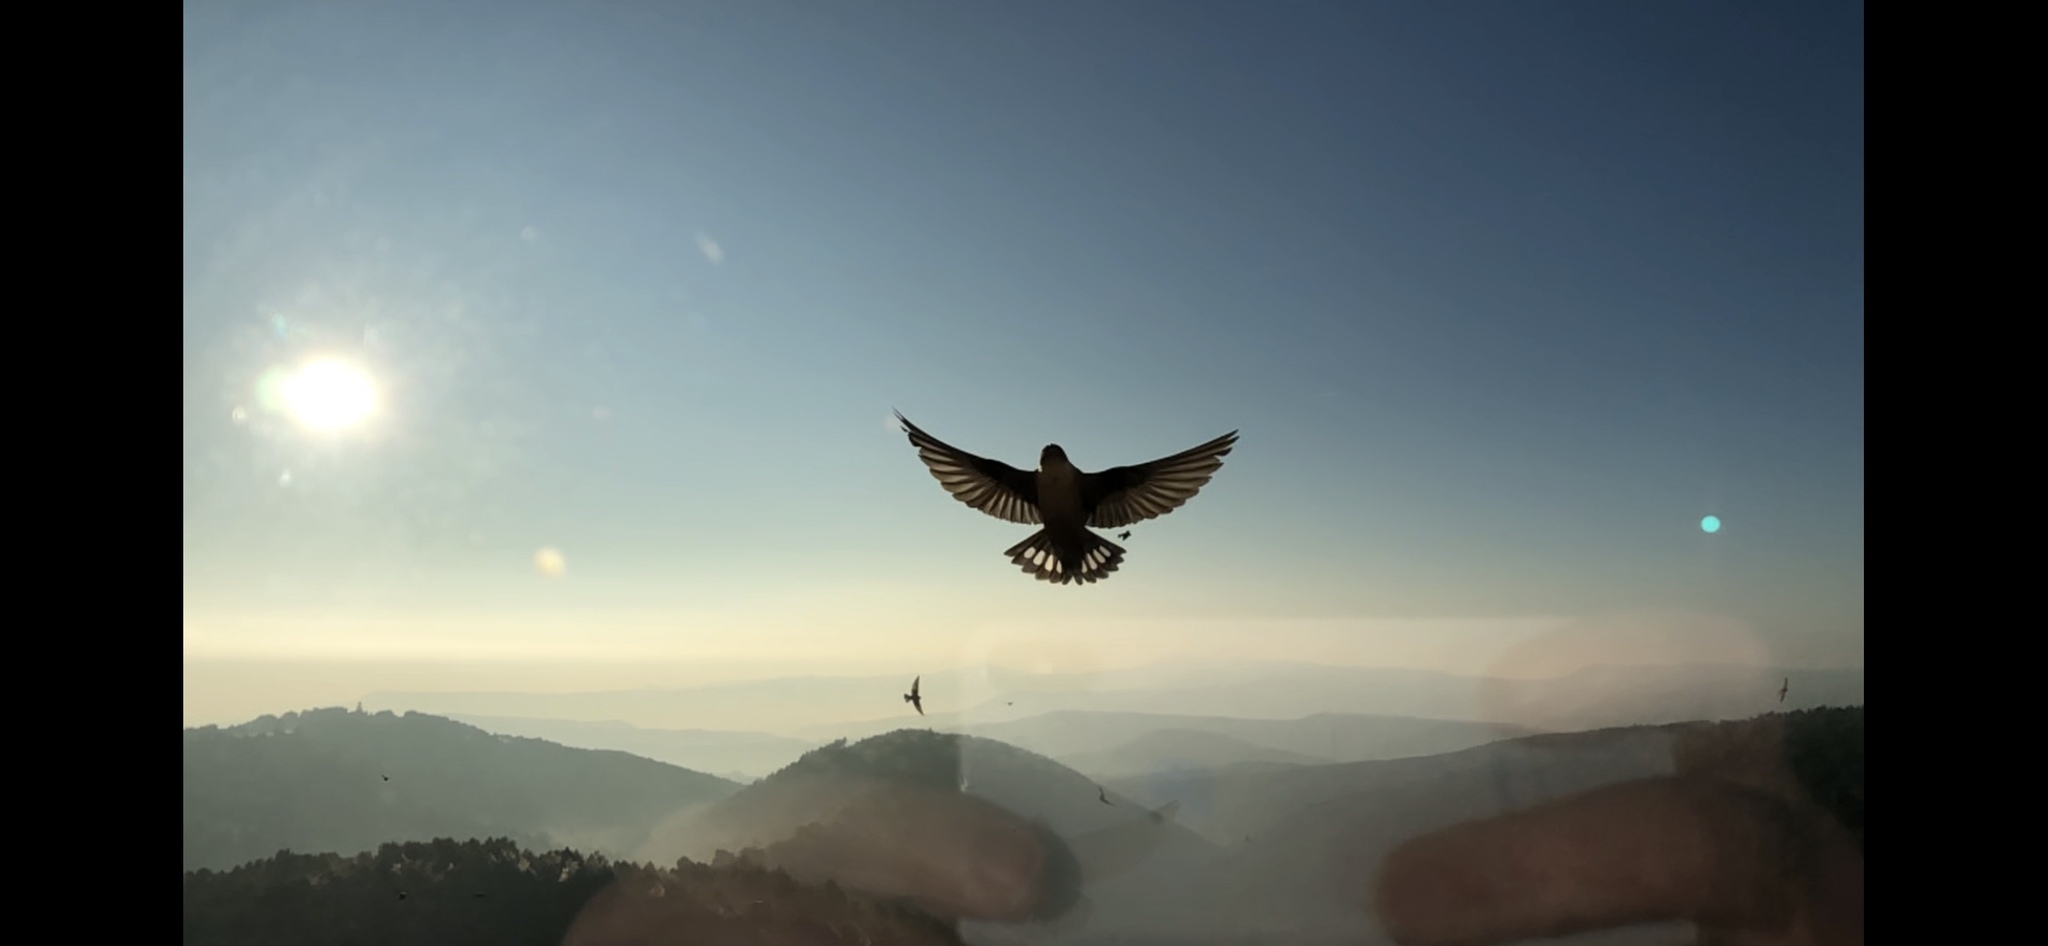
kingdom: Animalia
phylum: Chordata
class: Aves
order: Passeriformes
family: Hirundinidae
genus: Ptyonoprogne
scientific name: Ptyonoprogne rupestris
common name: Eurasian crag martin
